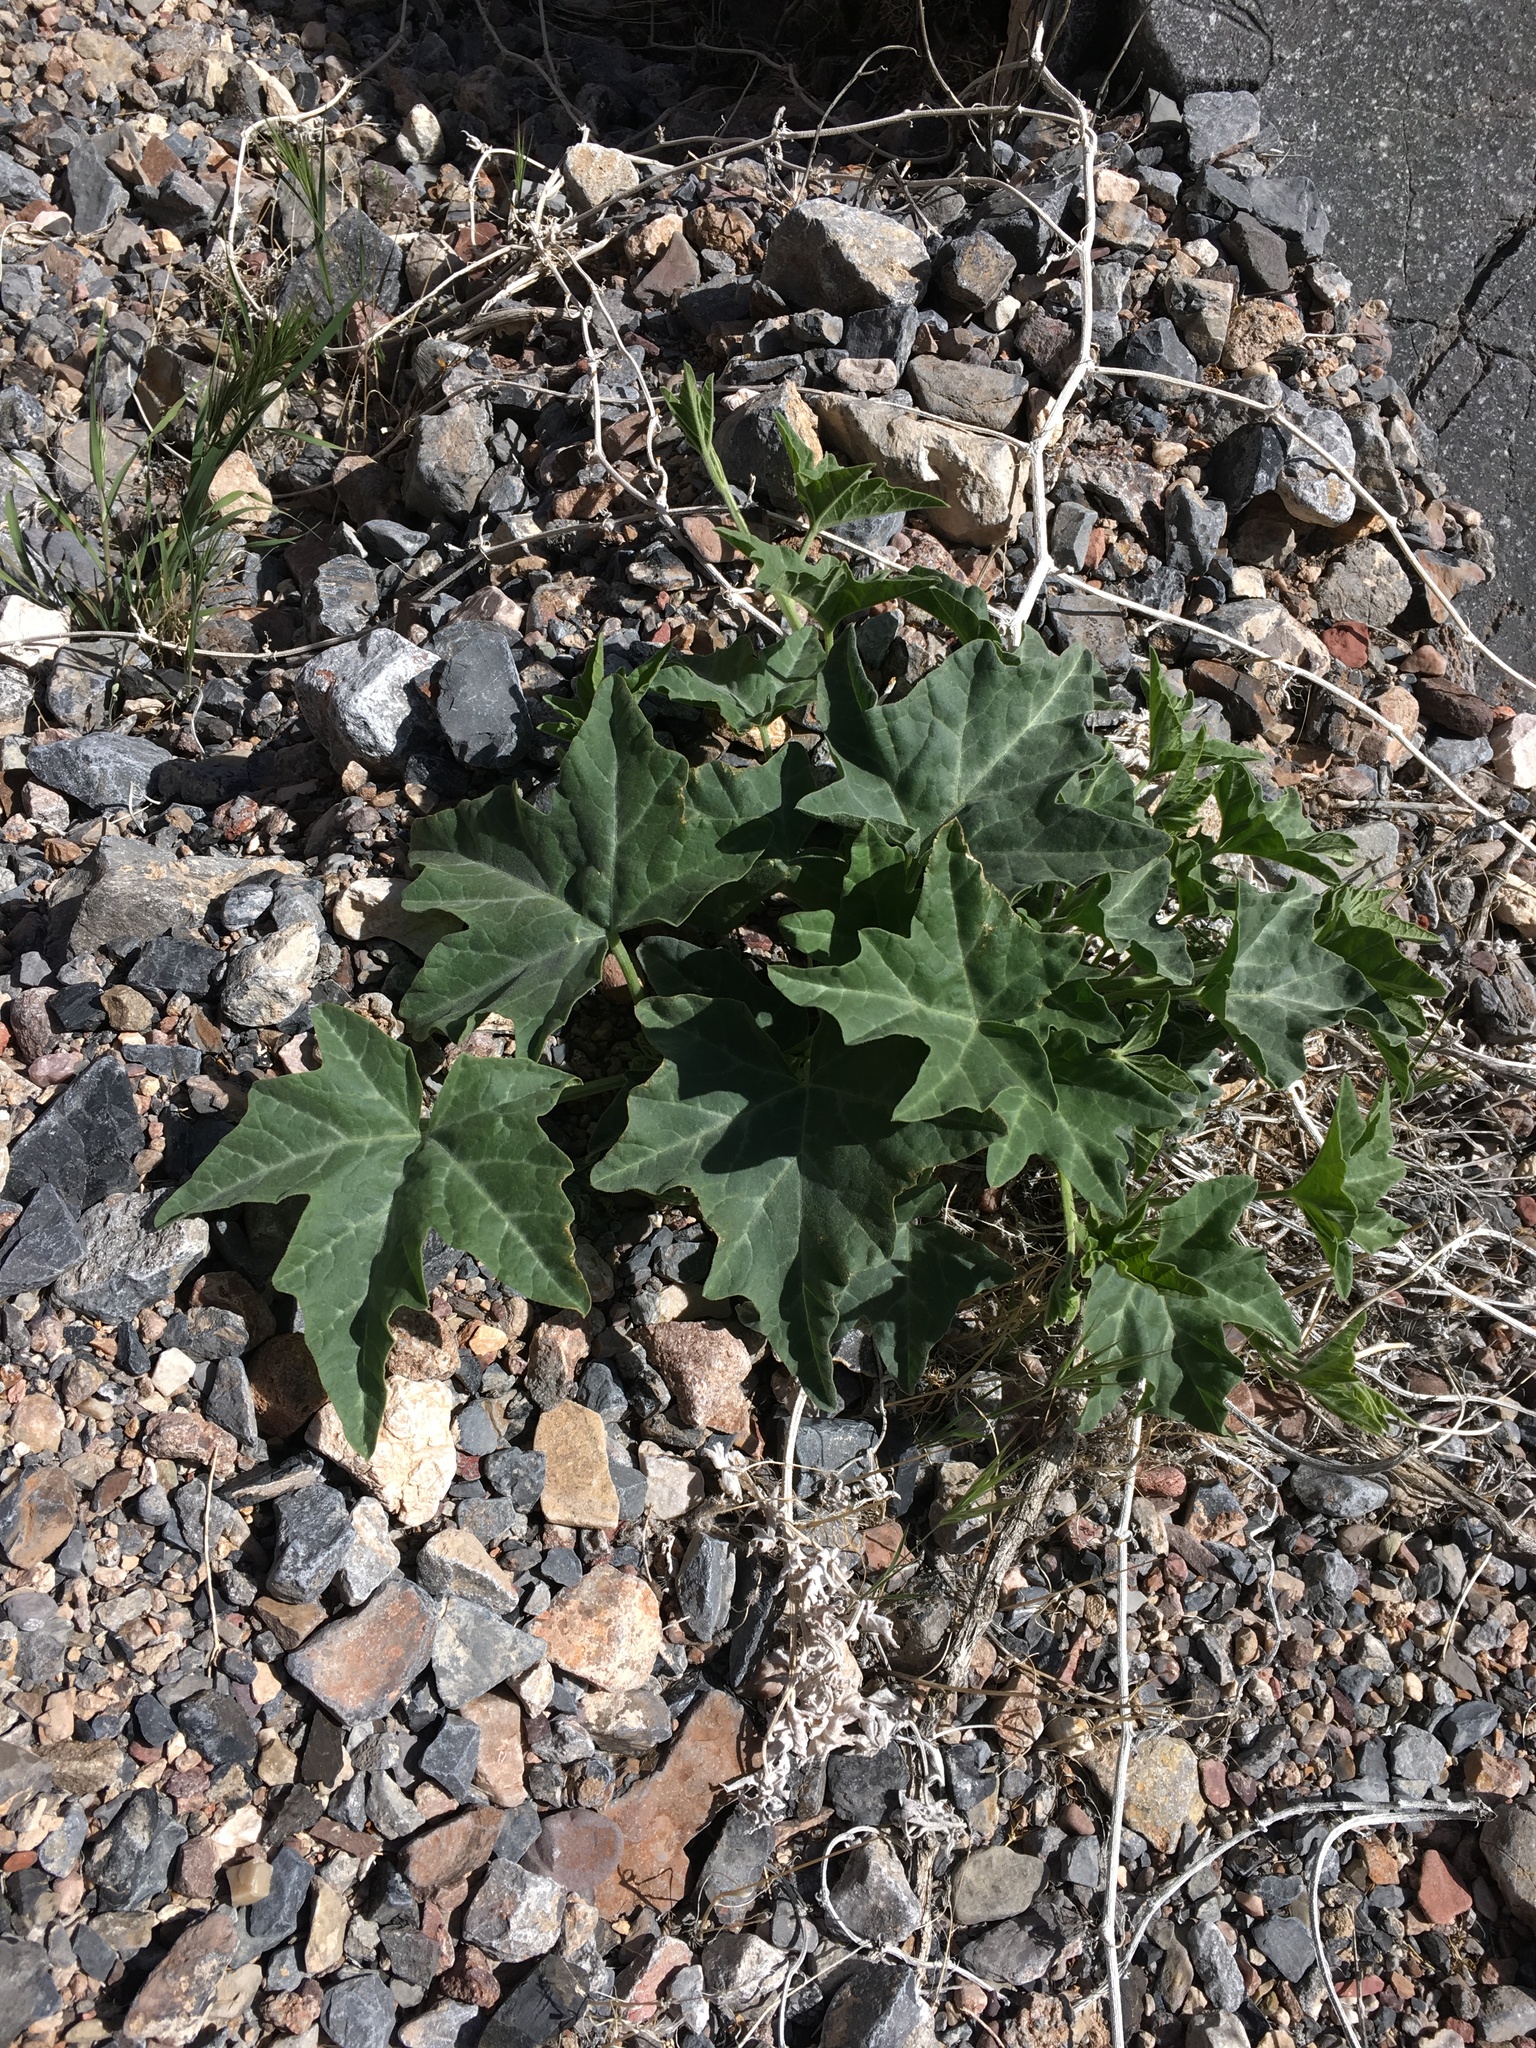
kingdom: Plantae
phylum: Tracheophyta
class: Magnoliopsida
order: Cucurbitales
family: Cucurbitaceae
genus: Cucurbita
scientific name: Cucurbita palmata
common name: Coyote-melon
